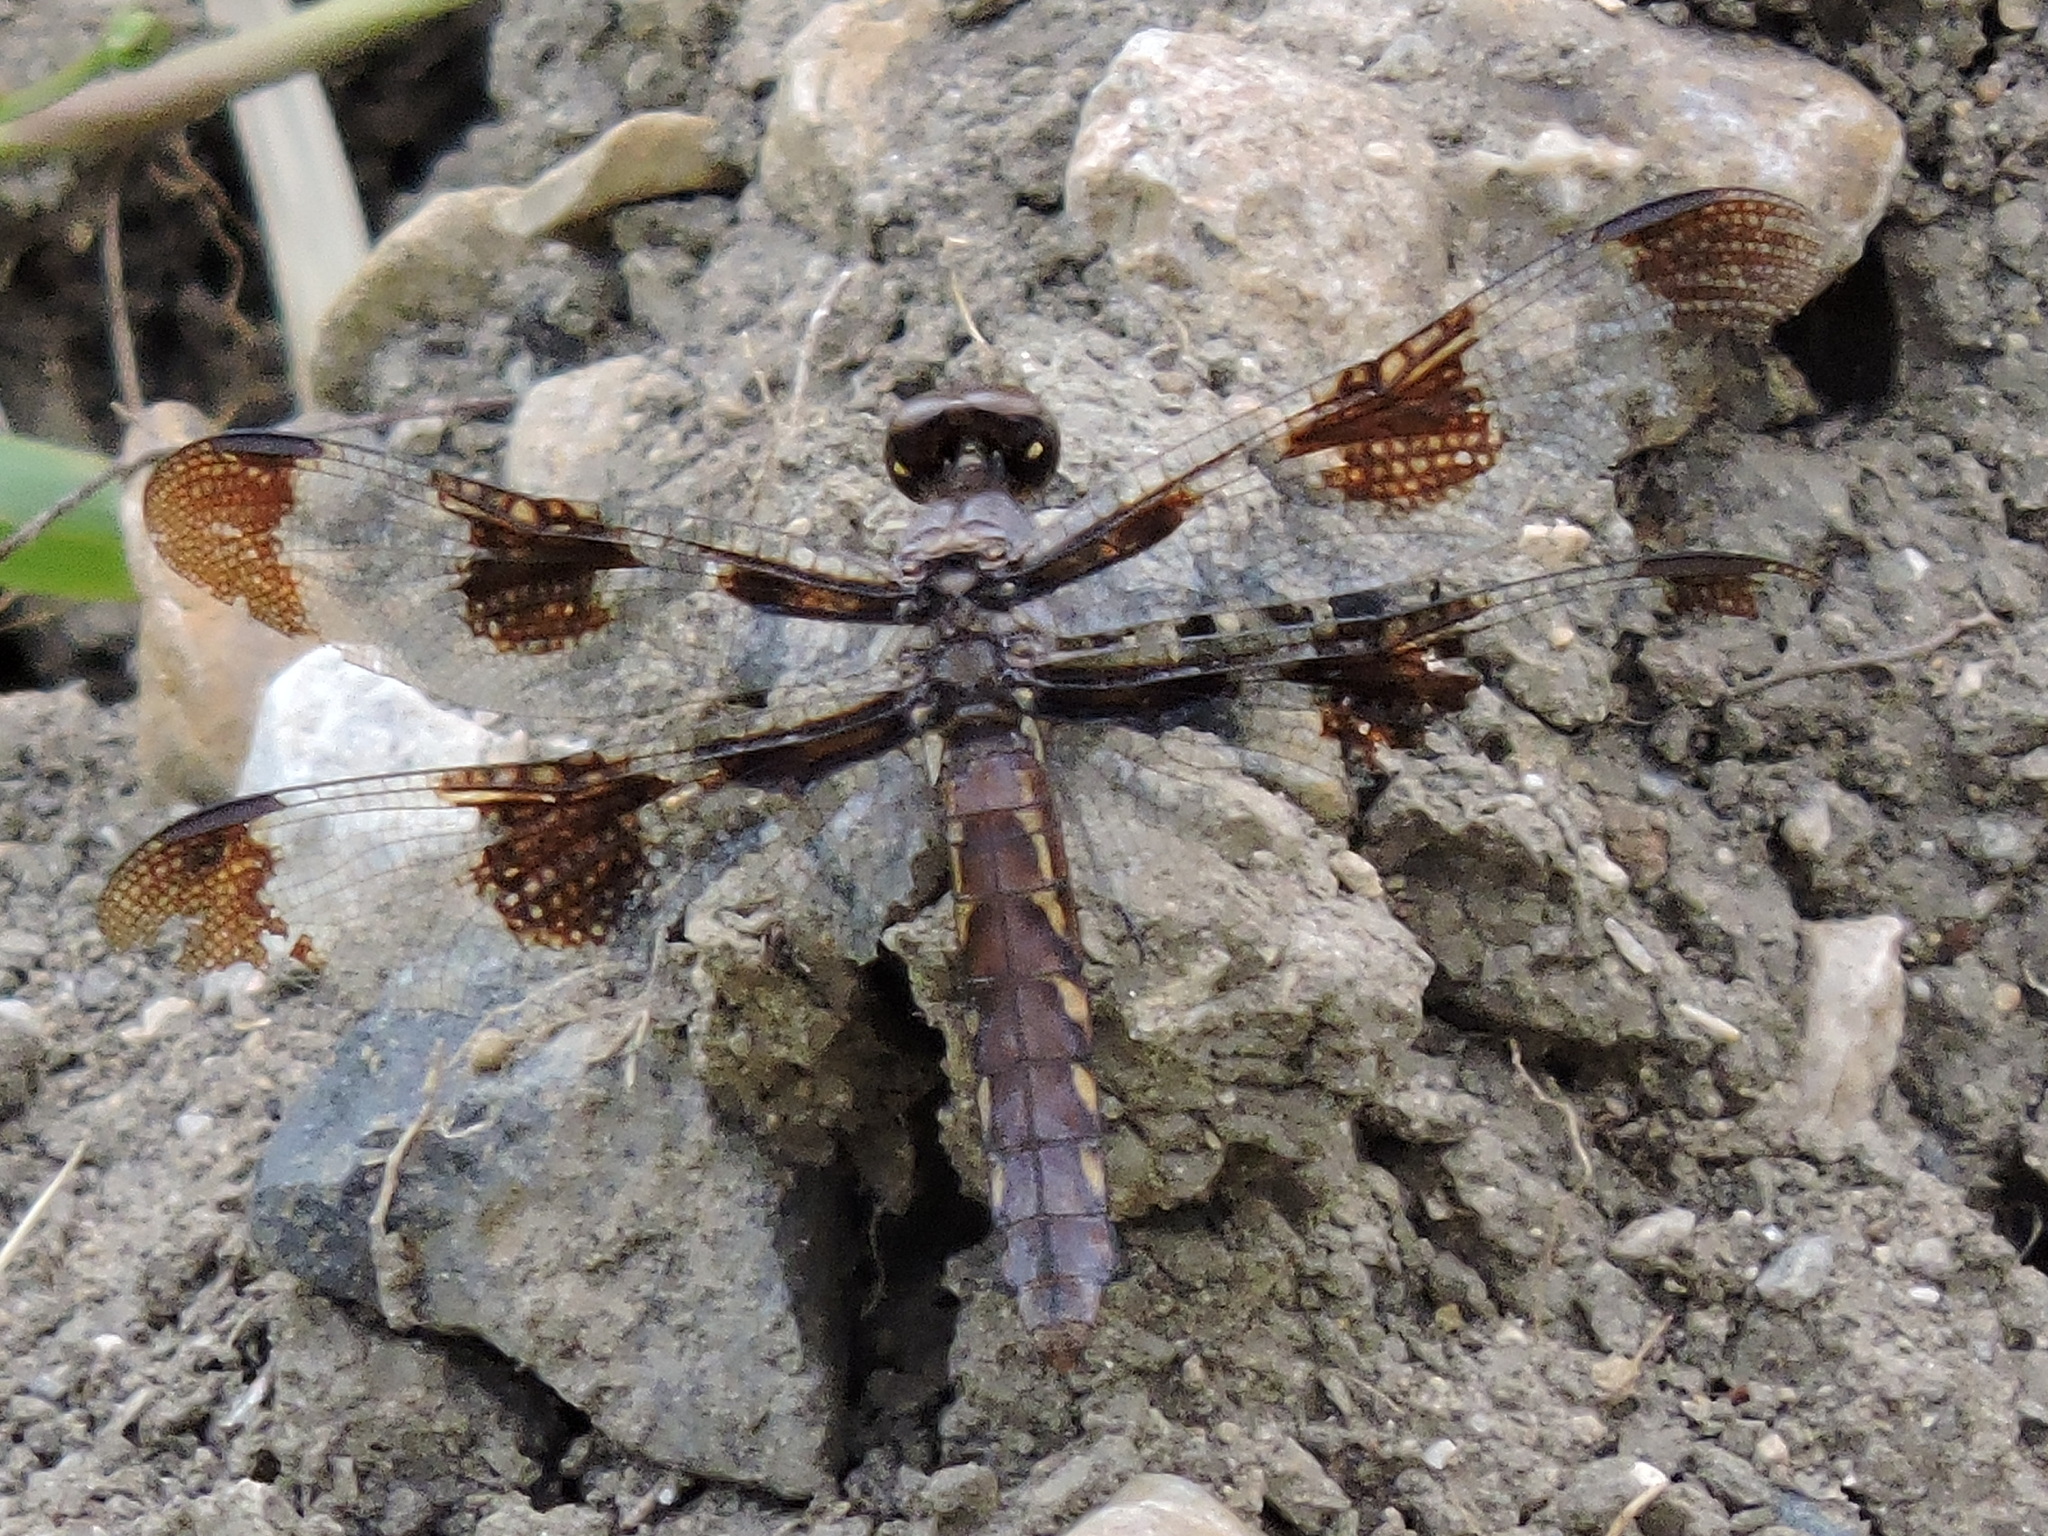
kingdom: Animalia
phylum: Arthropoda
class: Insecta
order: Odonata
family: Libellulidae
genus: Plathemis
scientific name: Plathemis lydia
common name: Common whitetail
